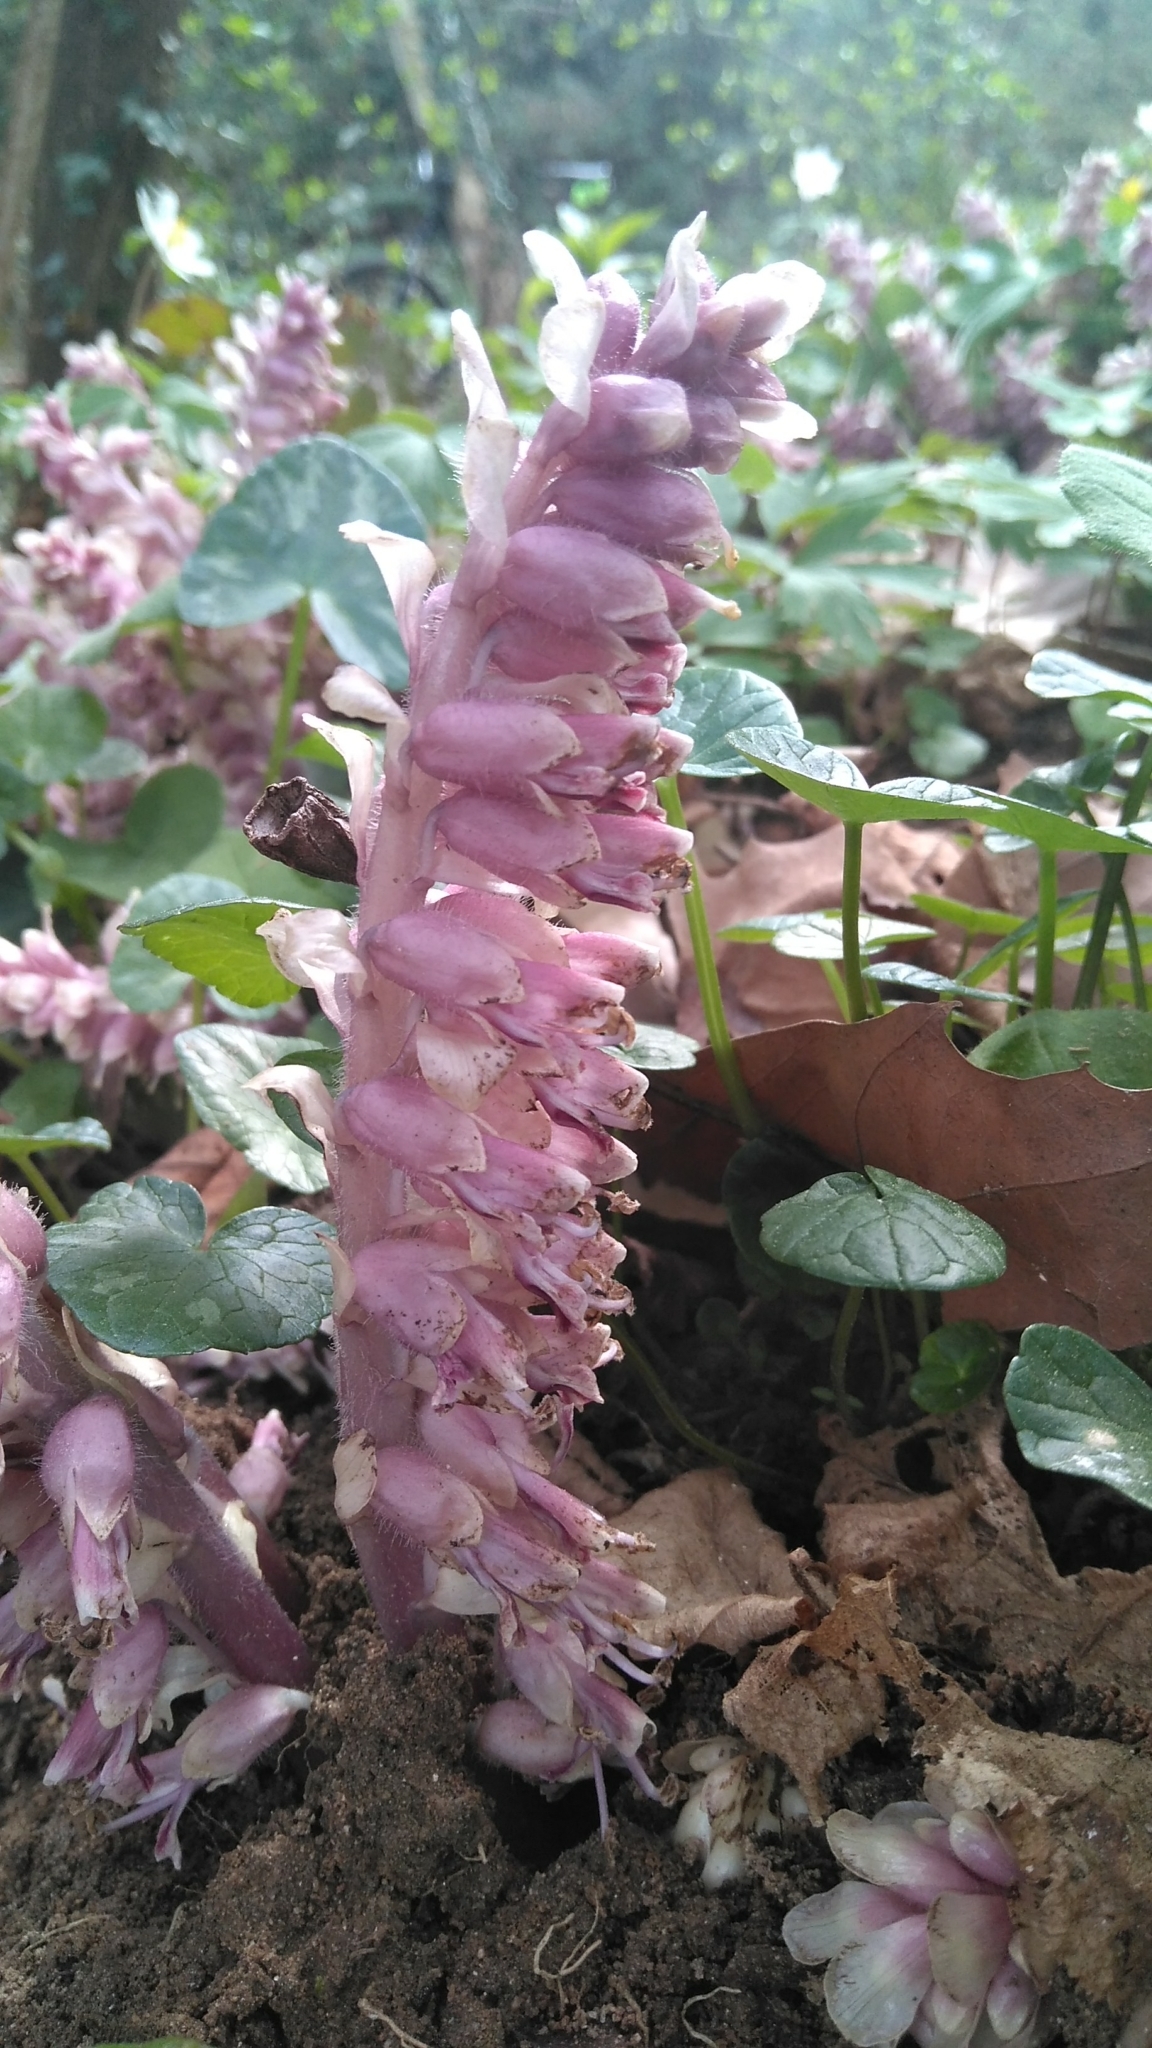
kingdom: Plantae
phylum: Tracheophyta
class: Magnoliopsida
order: Lamiales
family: Orobanchaceae
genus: Lathraea
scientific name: Lathraea squamaria
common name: Toothwort
